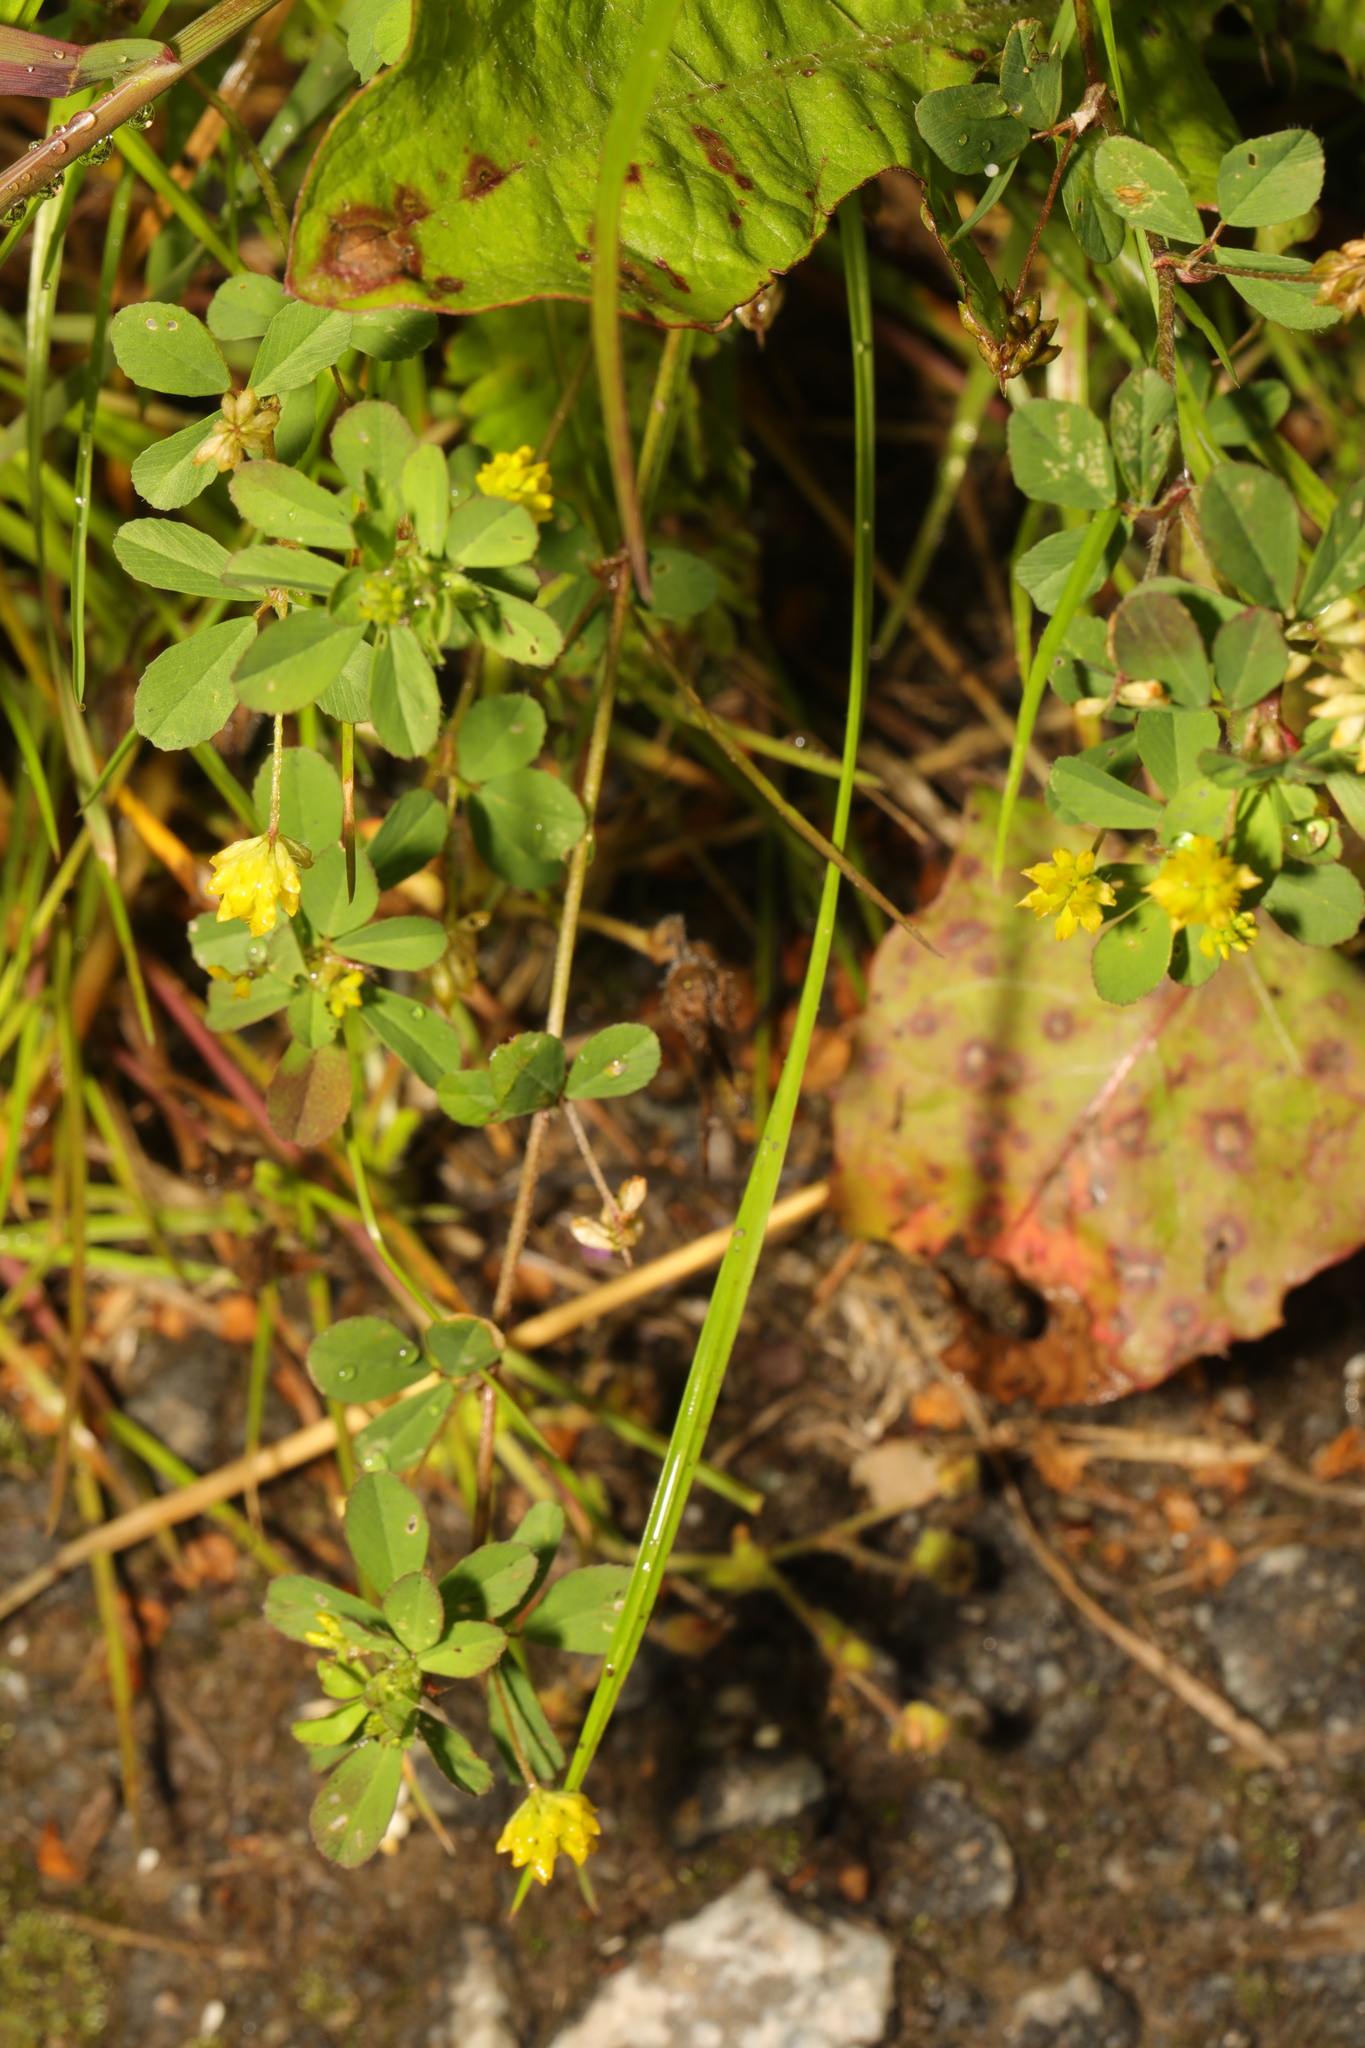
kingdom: Plantae
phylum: Tracheophyta
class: Magnoliopsida
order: Fabales
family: Fabaceae
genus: Trifolium
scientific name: Trifolium dubium
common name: Suckling clover
